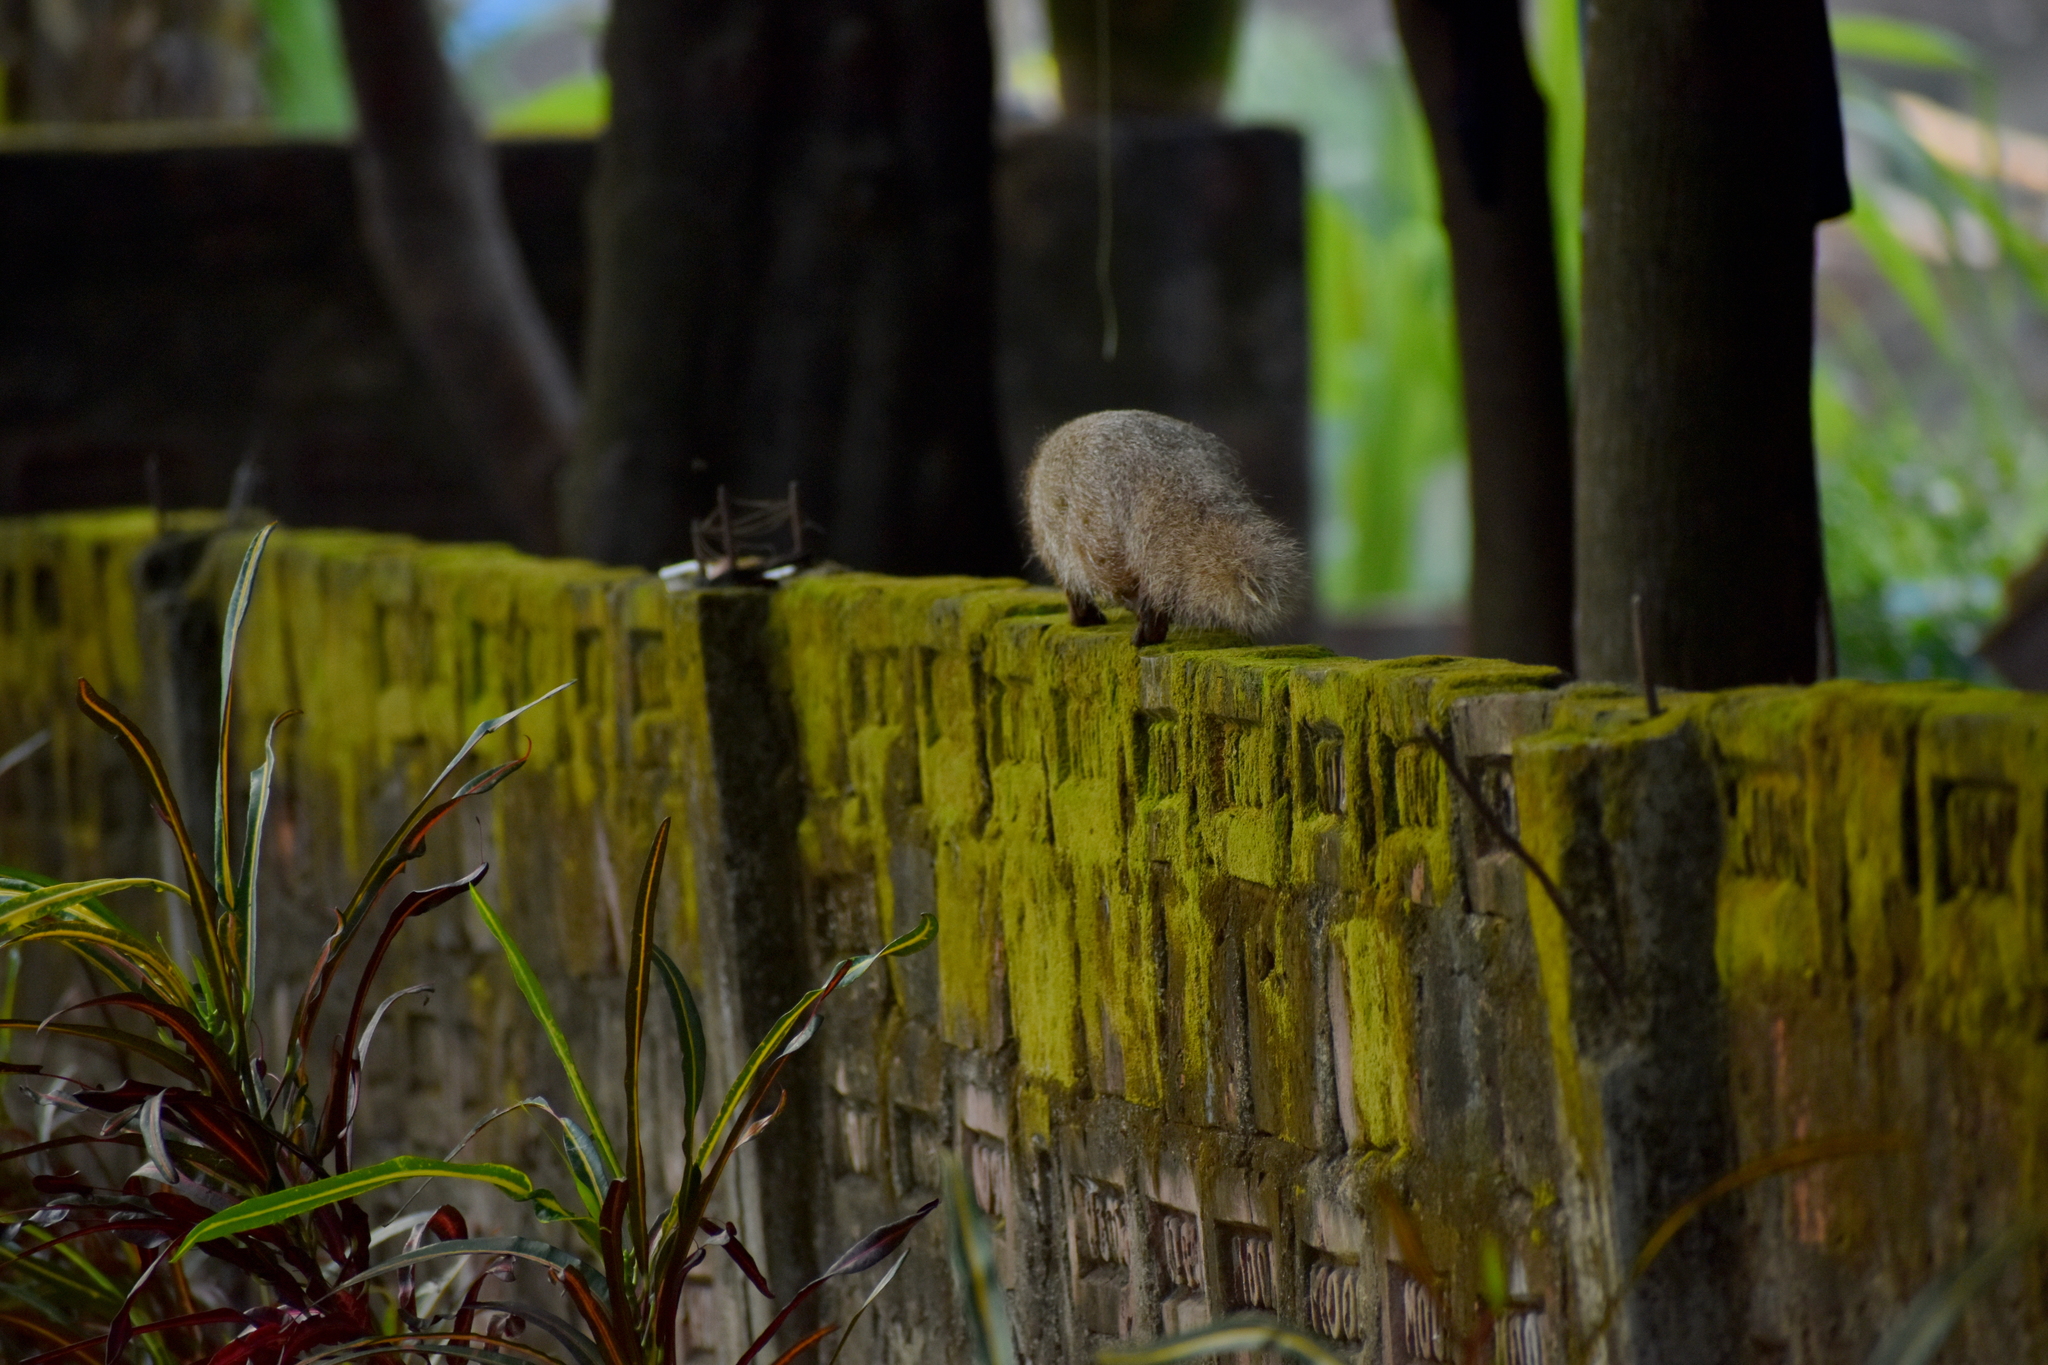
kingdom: Animalia
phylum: Chordata
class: Mammalia
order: Carnivora
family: Herpestidae
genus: Herpestes
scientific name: Herpestes edwardsi
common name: Indian gray mongoose
